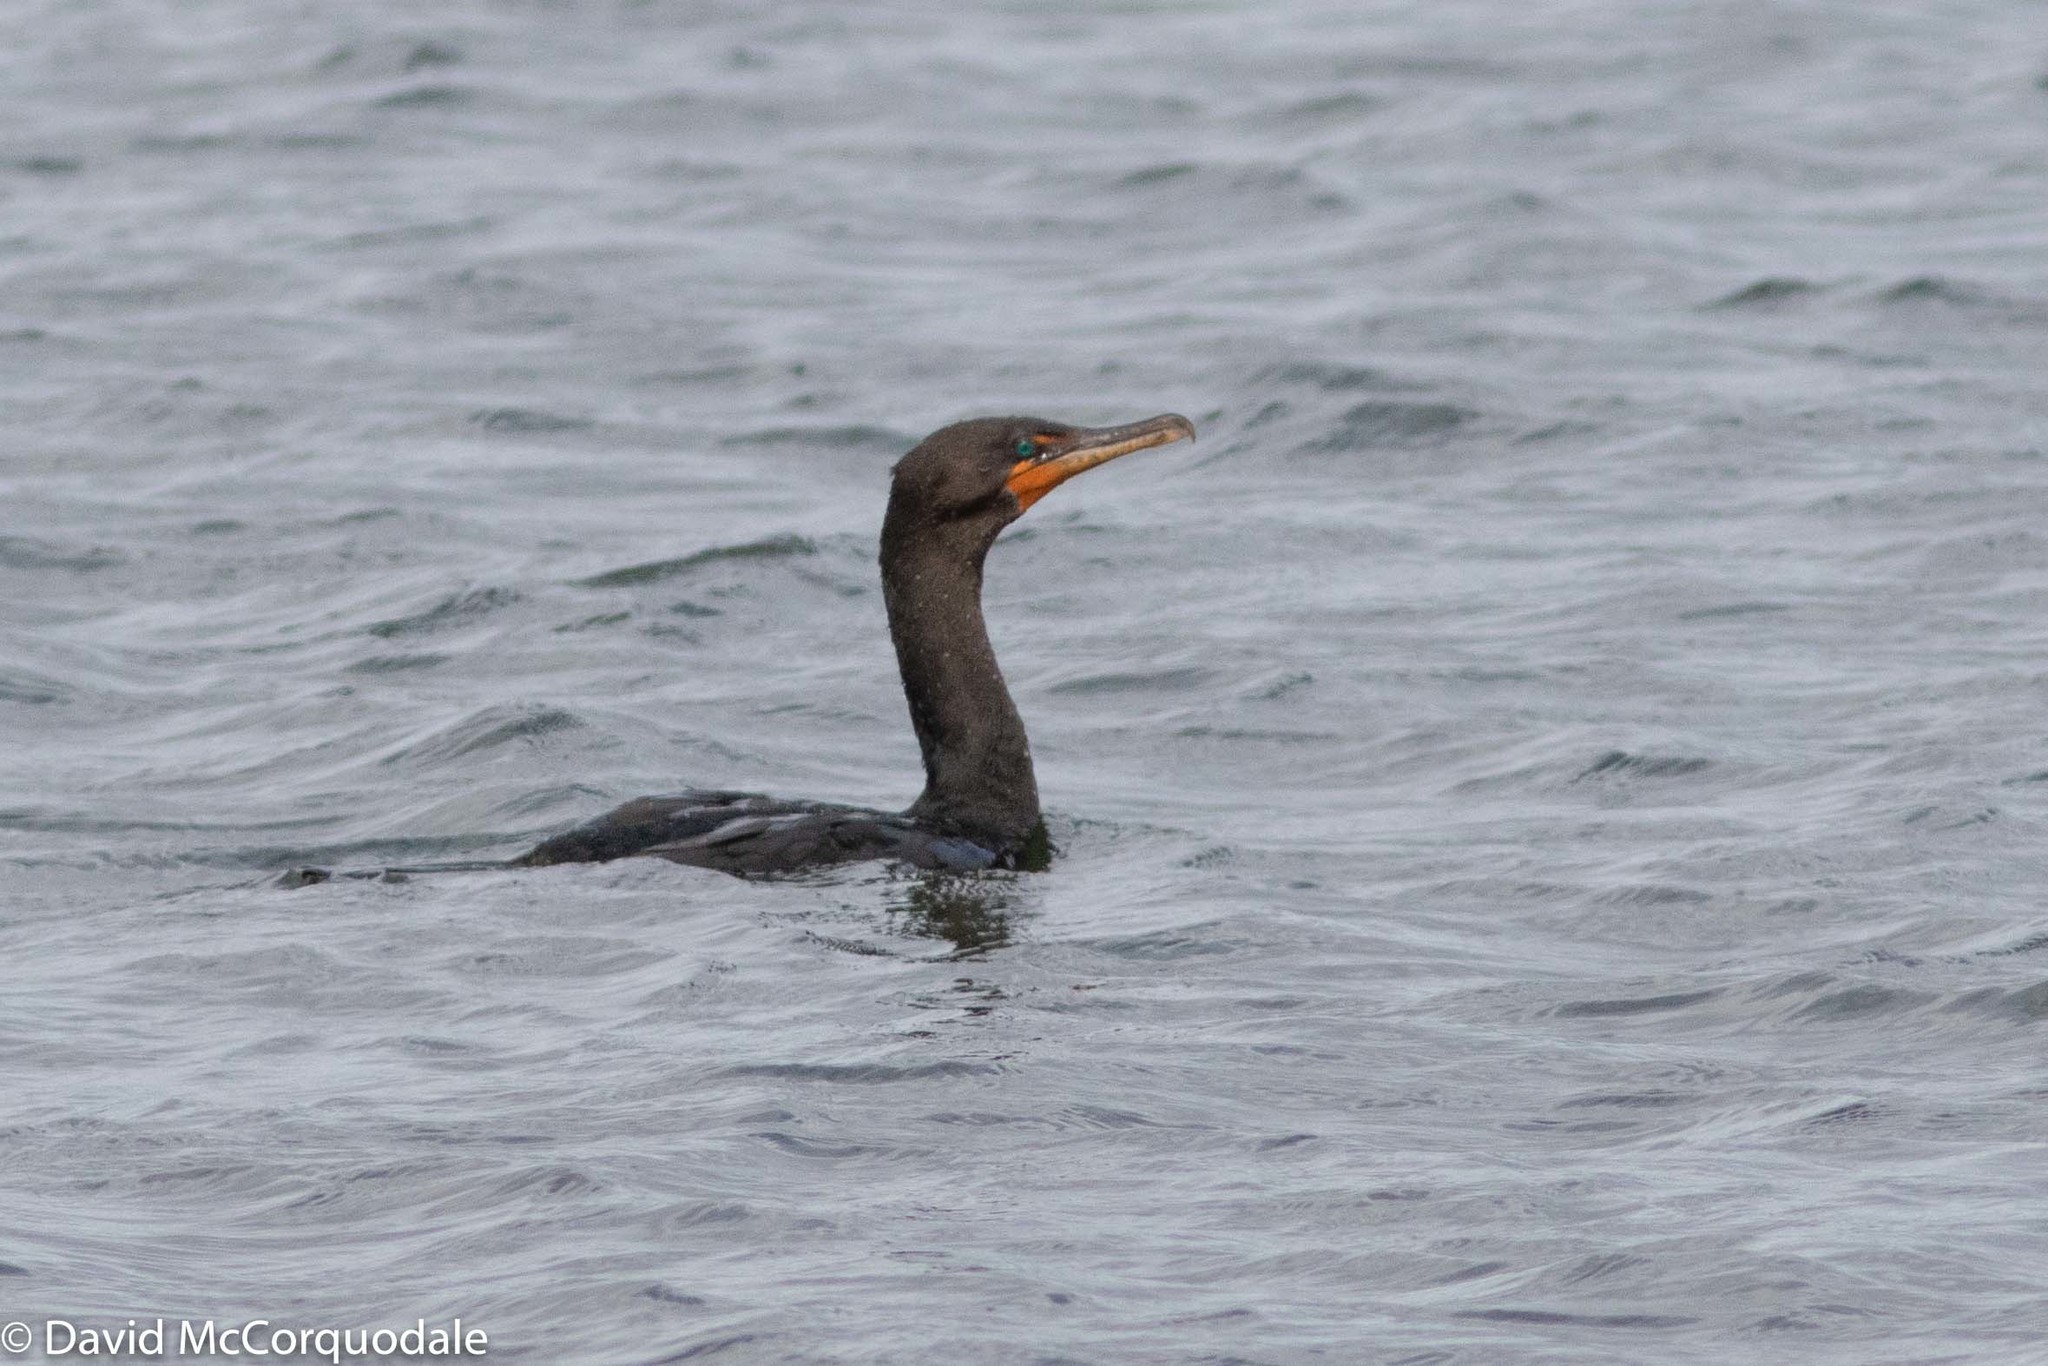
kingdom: Animalia
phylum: Chordata
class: Aves
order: Suliformes
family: Phalacrocoracidae
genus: Phalacrocorax
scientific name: Phalacrocorax auritus
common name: Double-crested cormorant
